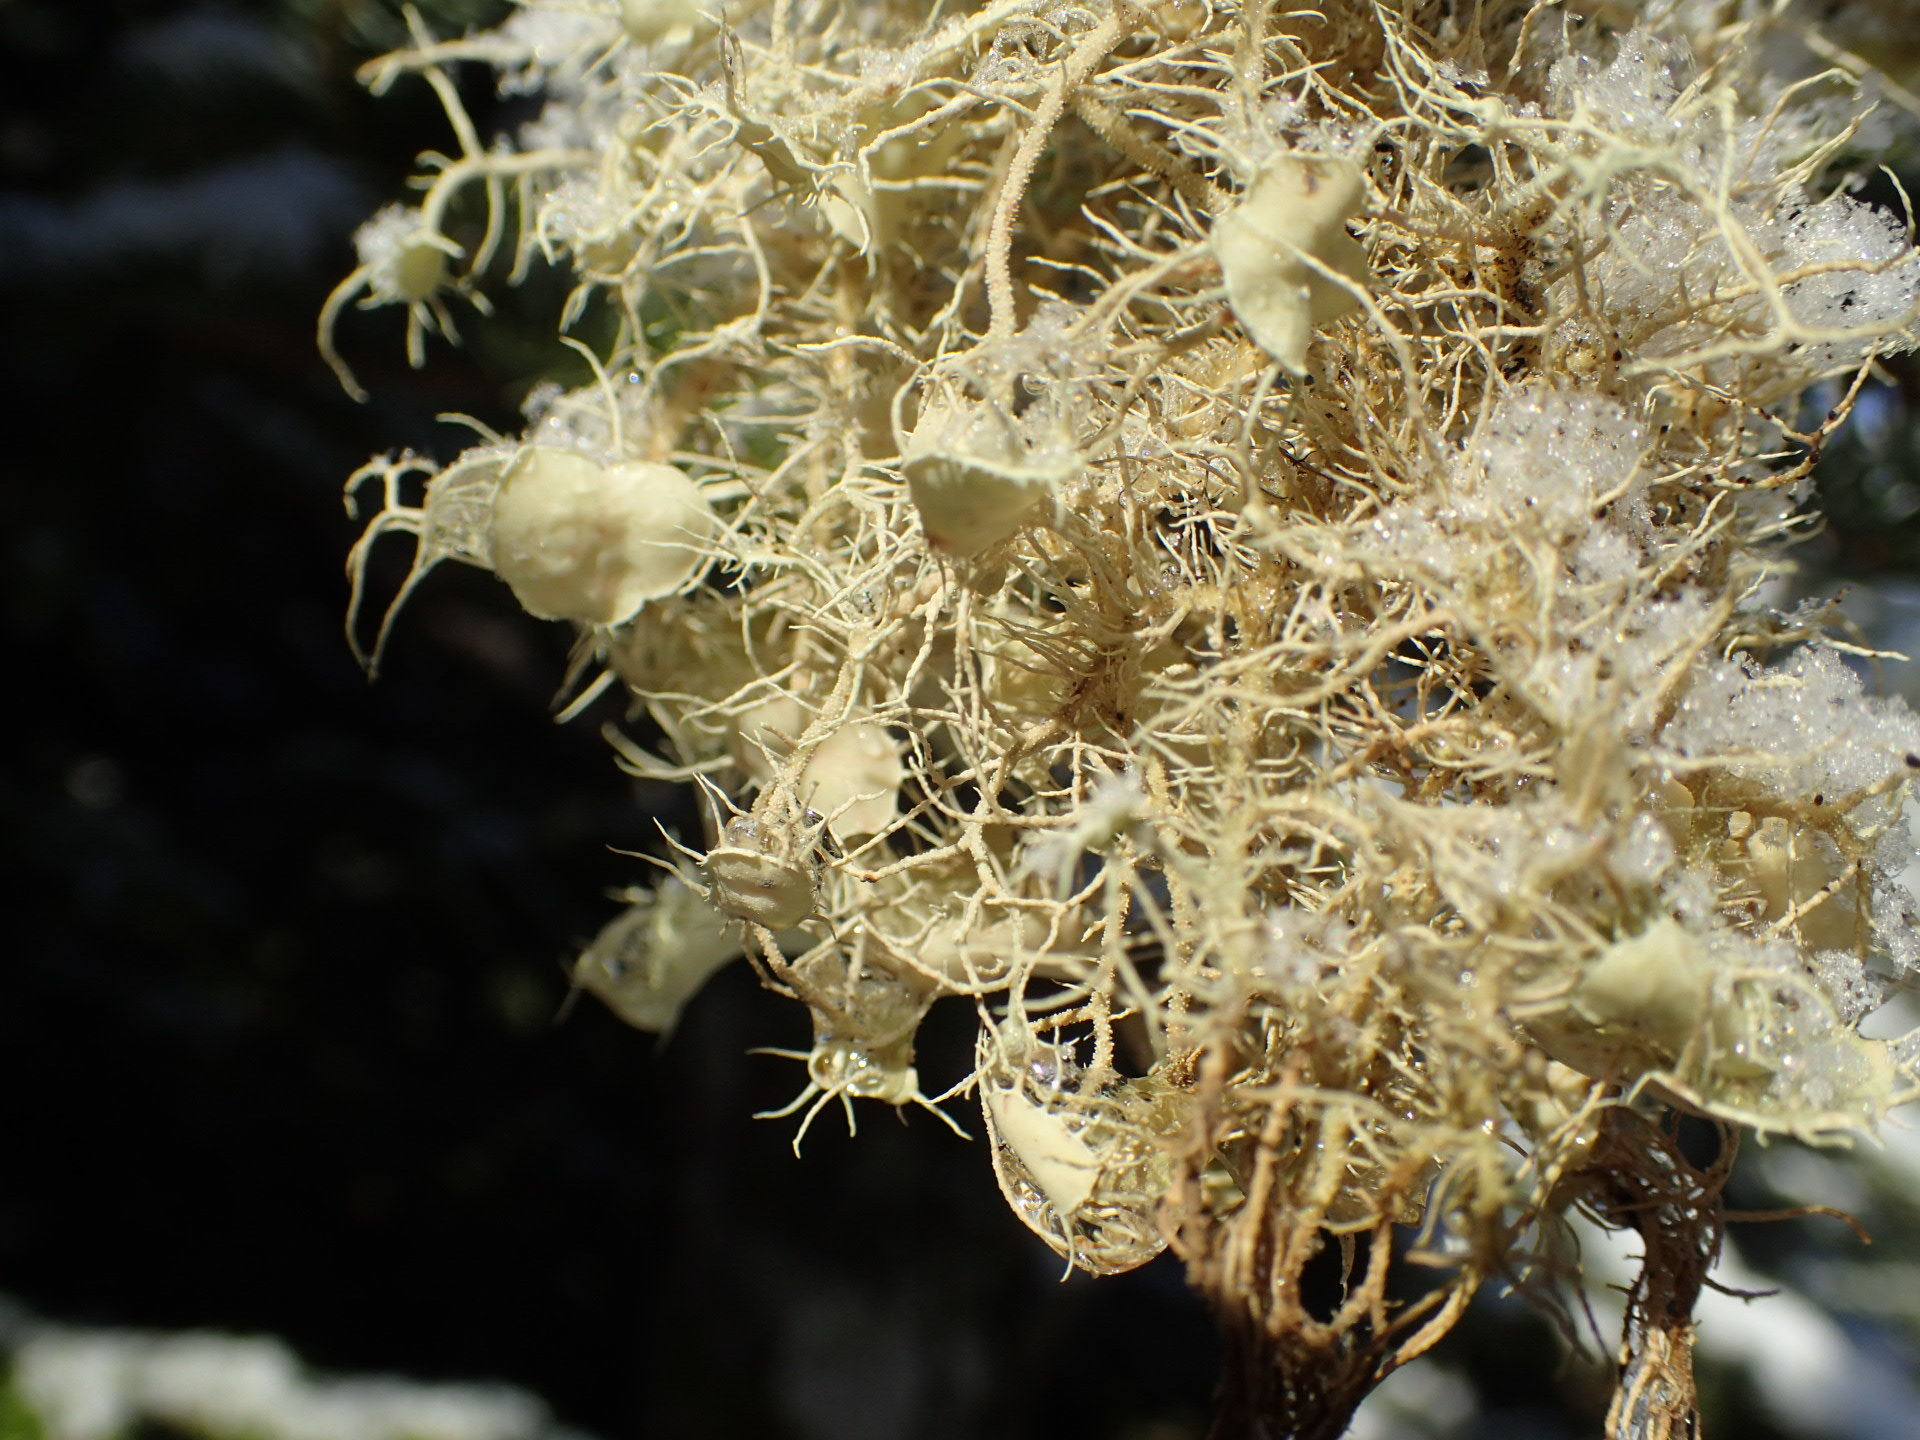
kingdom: Fungi
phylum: Ascomycota
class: Lecanoromycetes
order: Lecanorales
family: Parmeliaceae
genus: Usnea
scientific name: Usnea strigosa
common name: Bushy beard lichen
